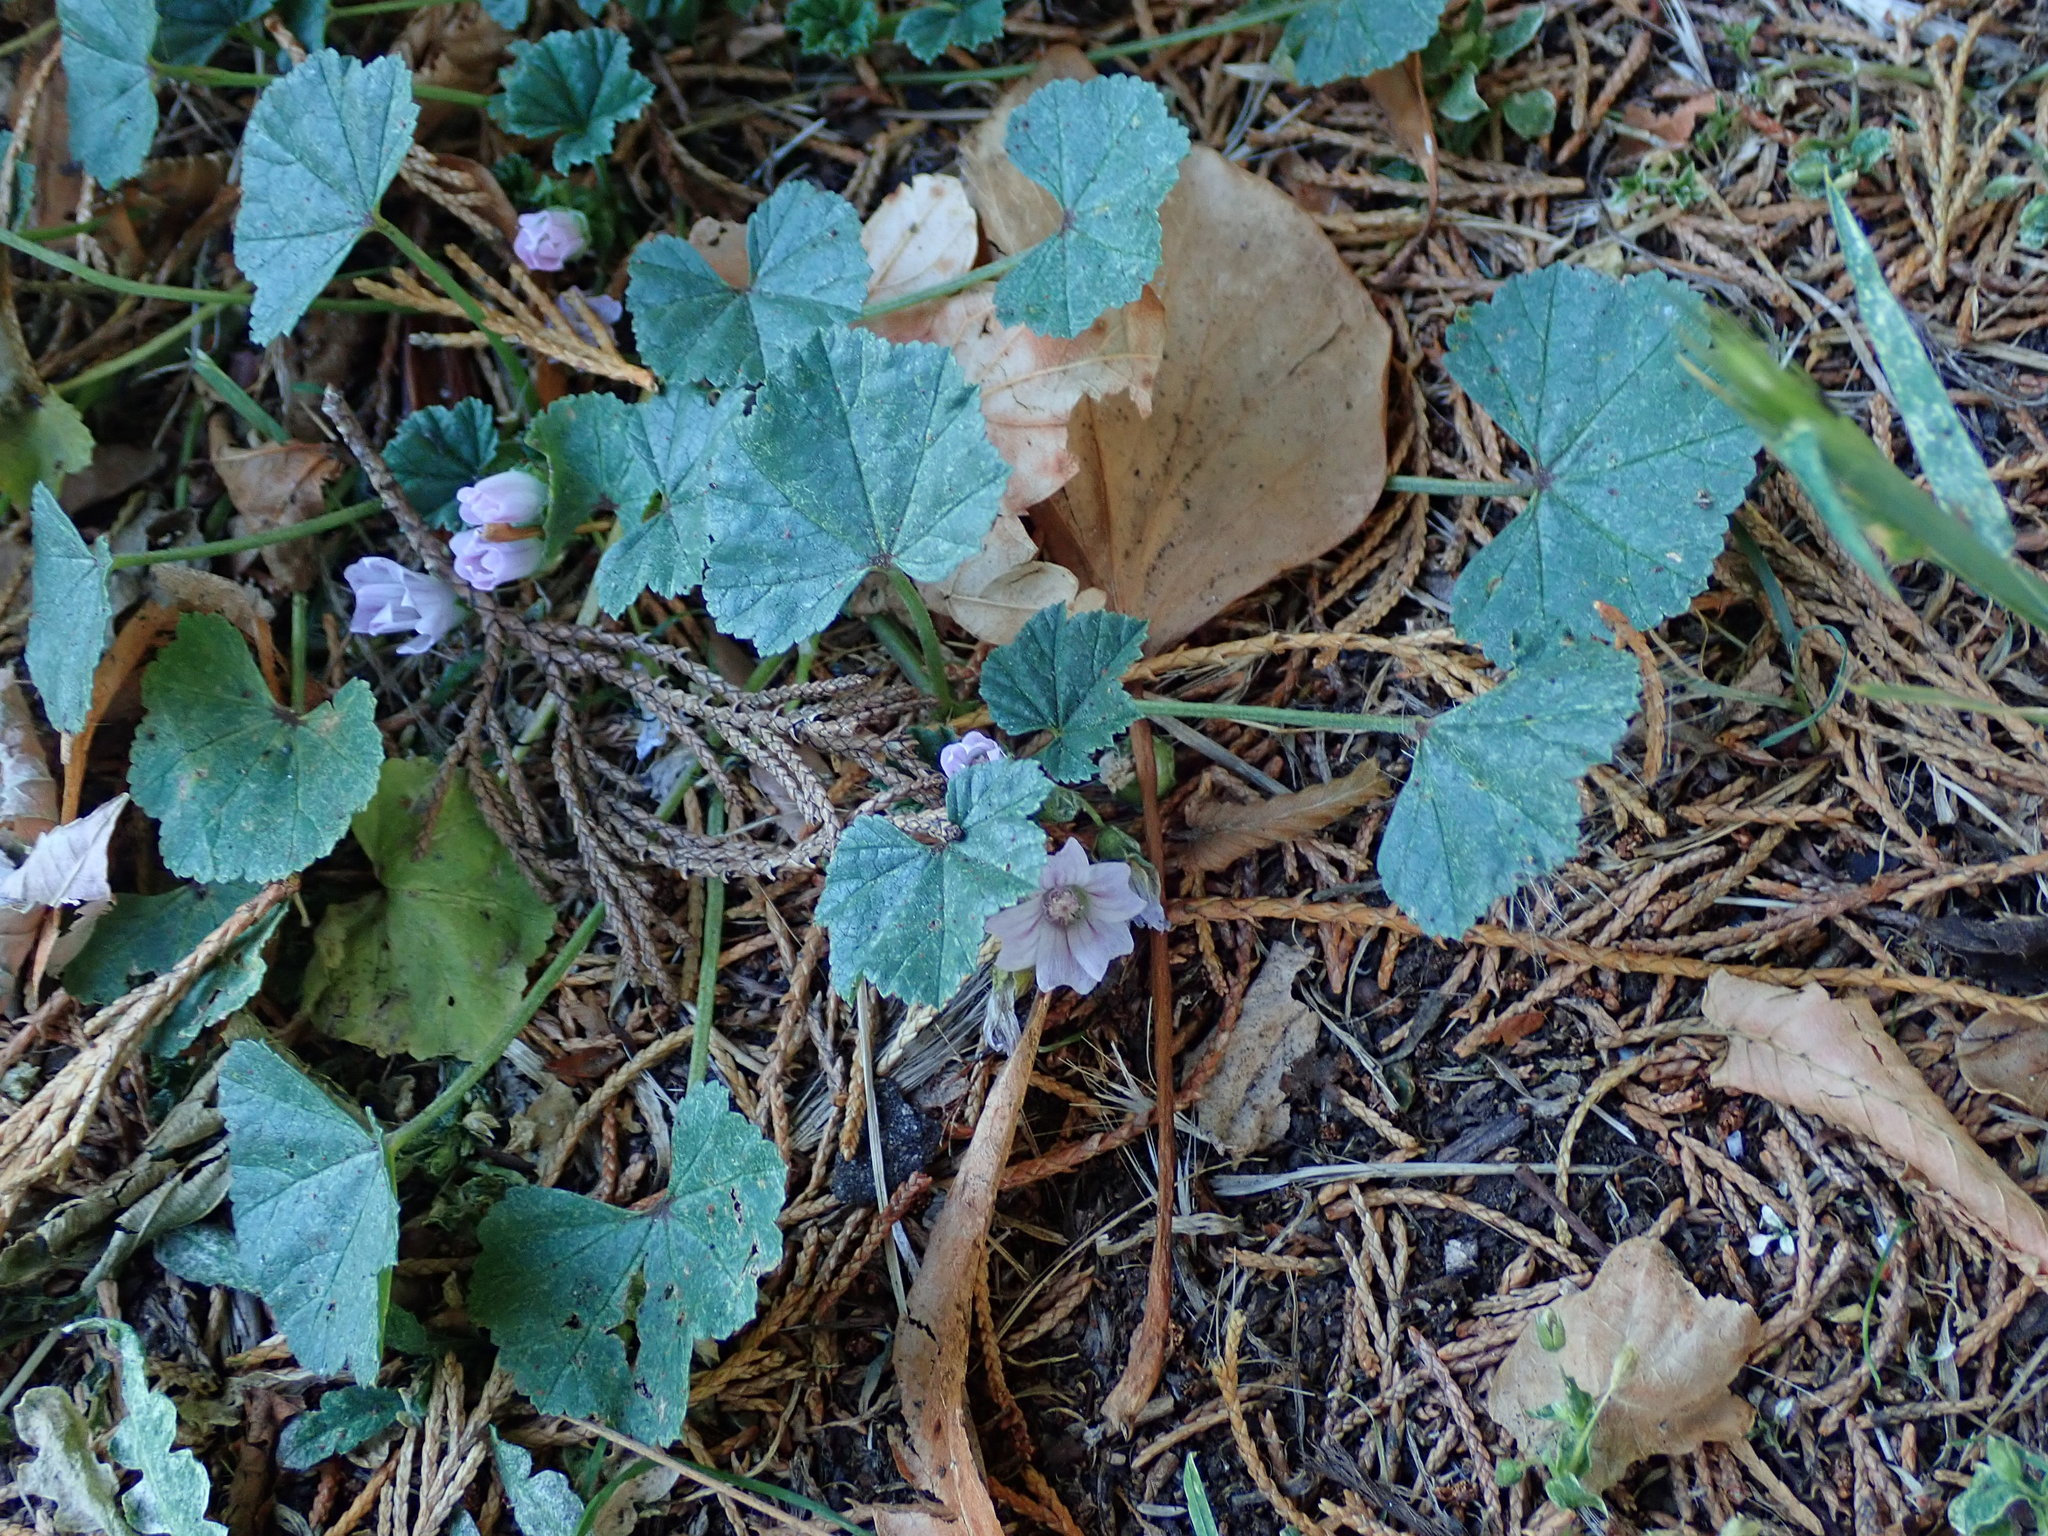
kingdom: Plantae
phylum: Tracheophyta
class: Magnoliopsida
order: Malvales
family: Malvaceae
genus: Malva
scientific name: Malva neglecta
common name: Common mallow
